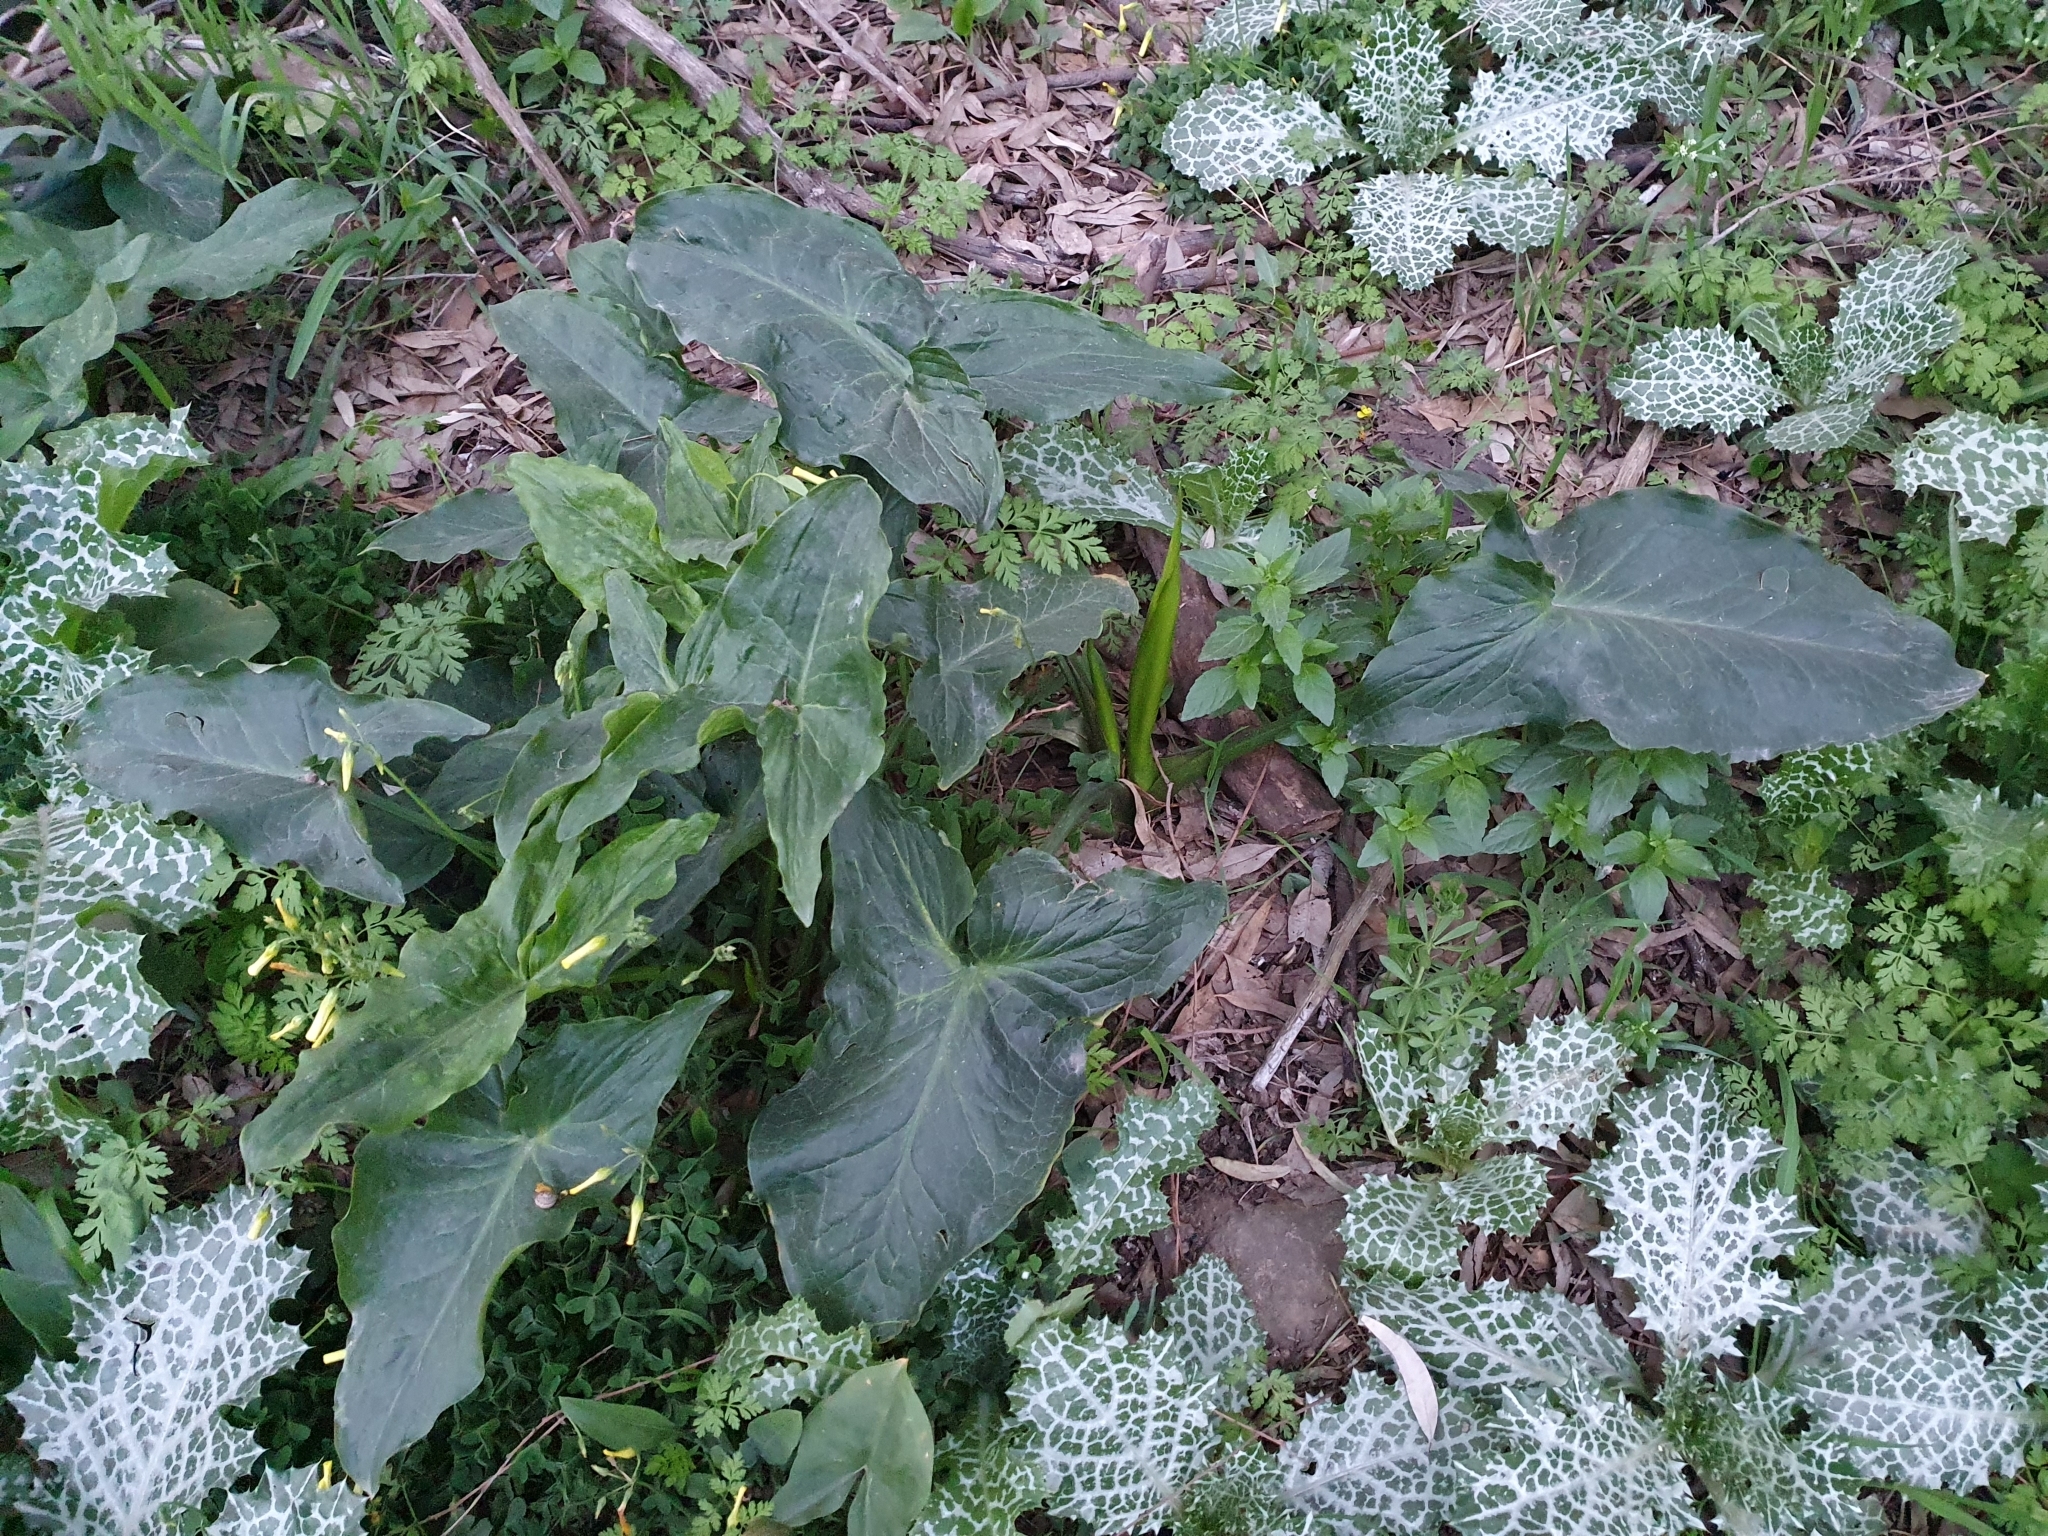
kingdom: Plantae
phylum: Tracheophyta
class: Liliopsida
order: Alismatales
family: Araceae
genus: Arum
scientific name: Arum italicum
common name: Italian lords-and-ladies
